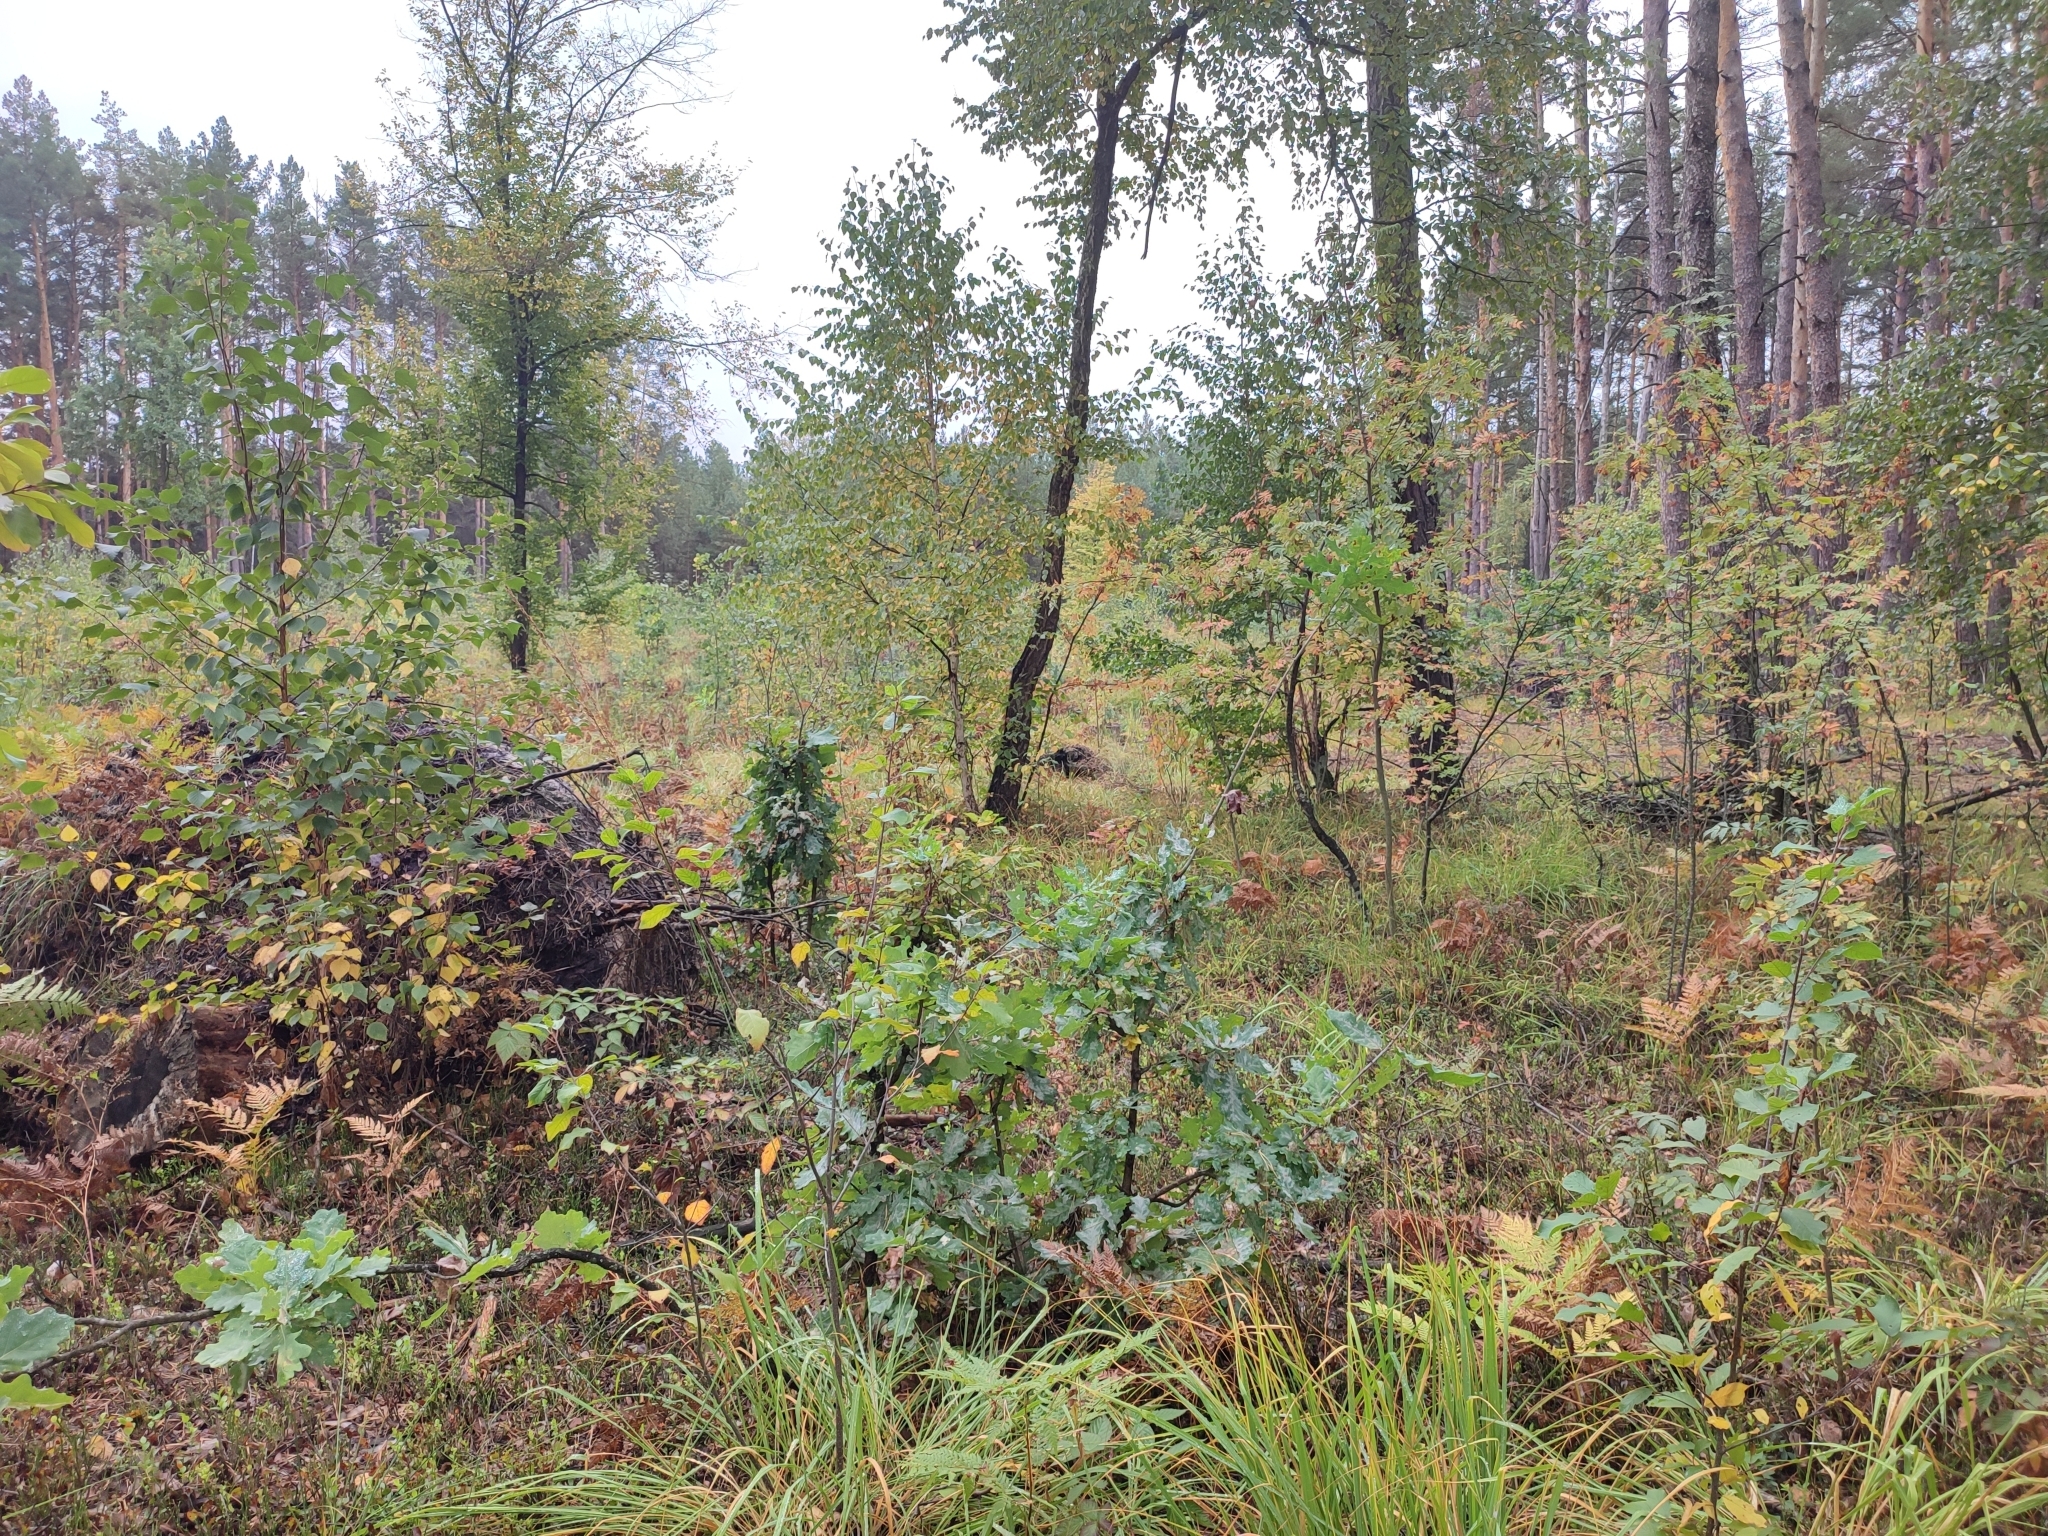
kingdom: Plantae
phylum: Tracheophyta
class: Magnoliopsida
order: Fagales
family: Fagaceae
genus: Quercus
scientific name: Quercus robur
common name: Pedunculate oak
